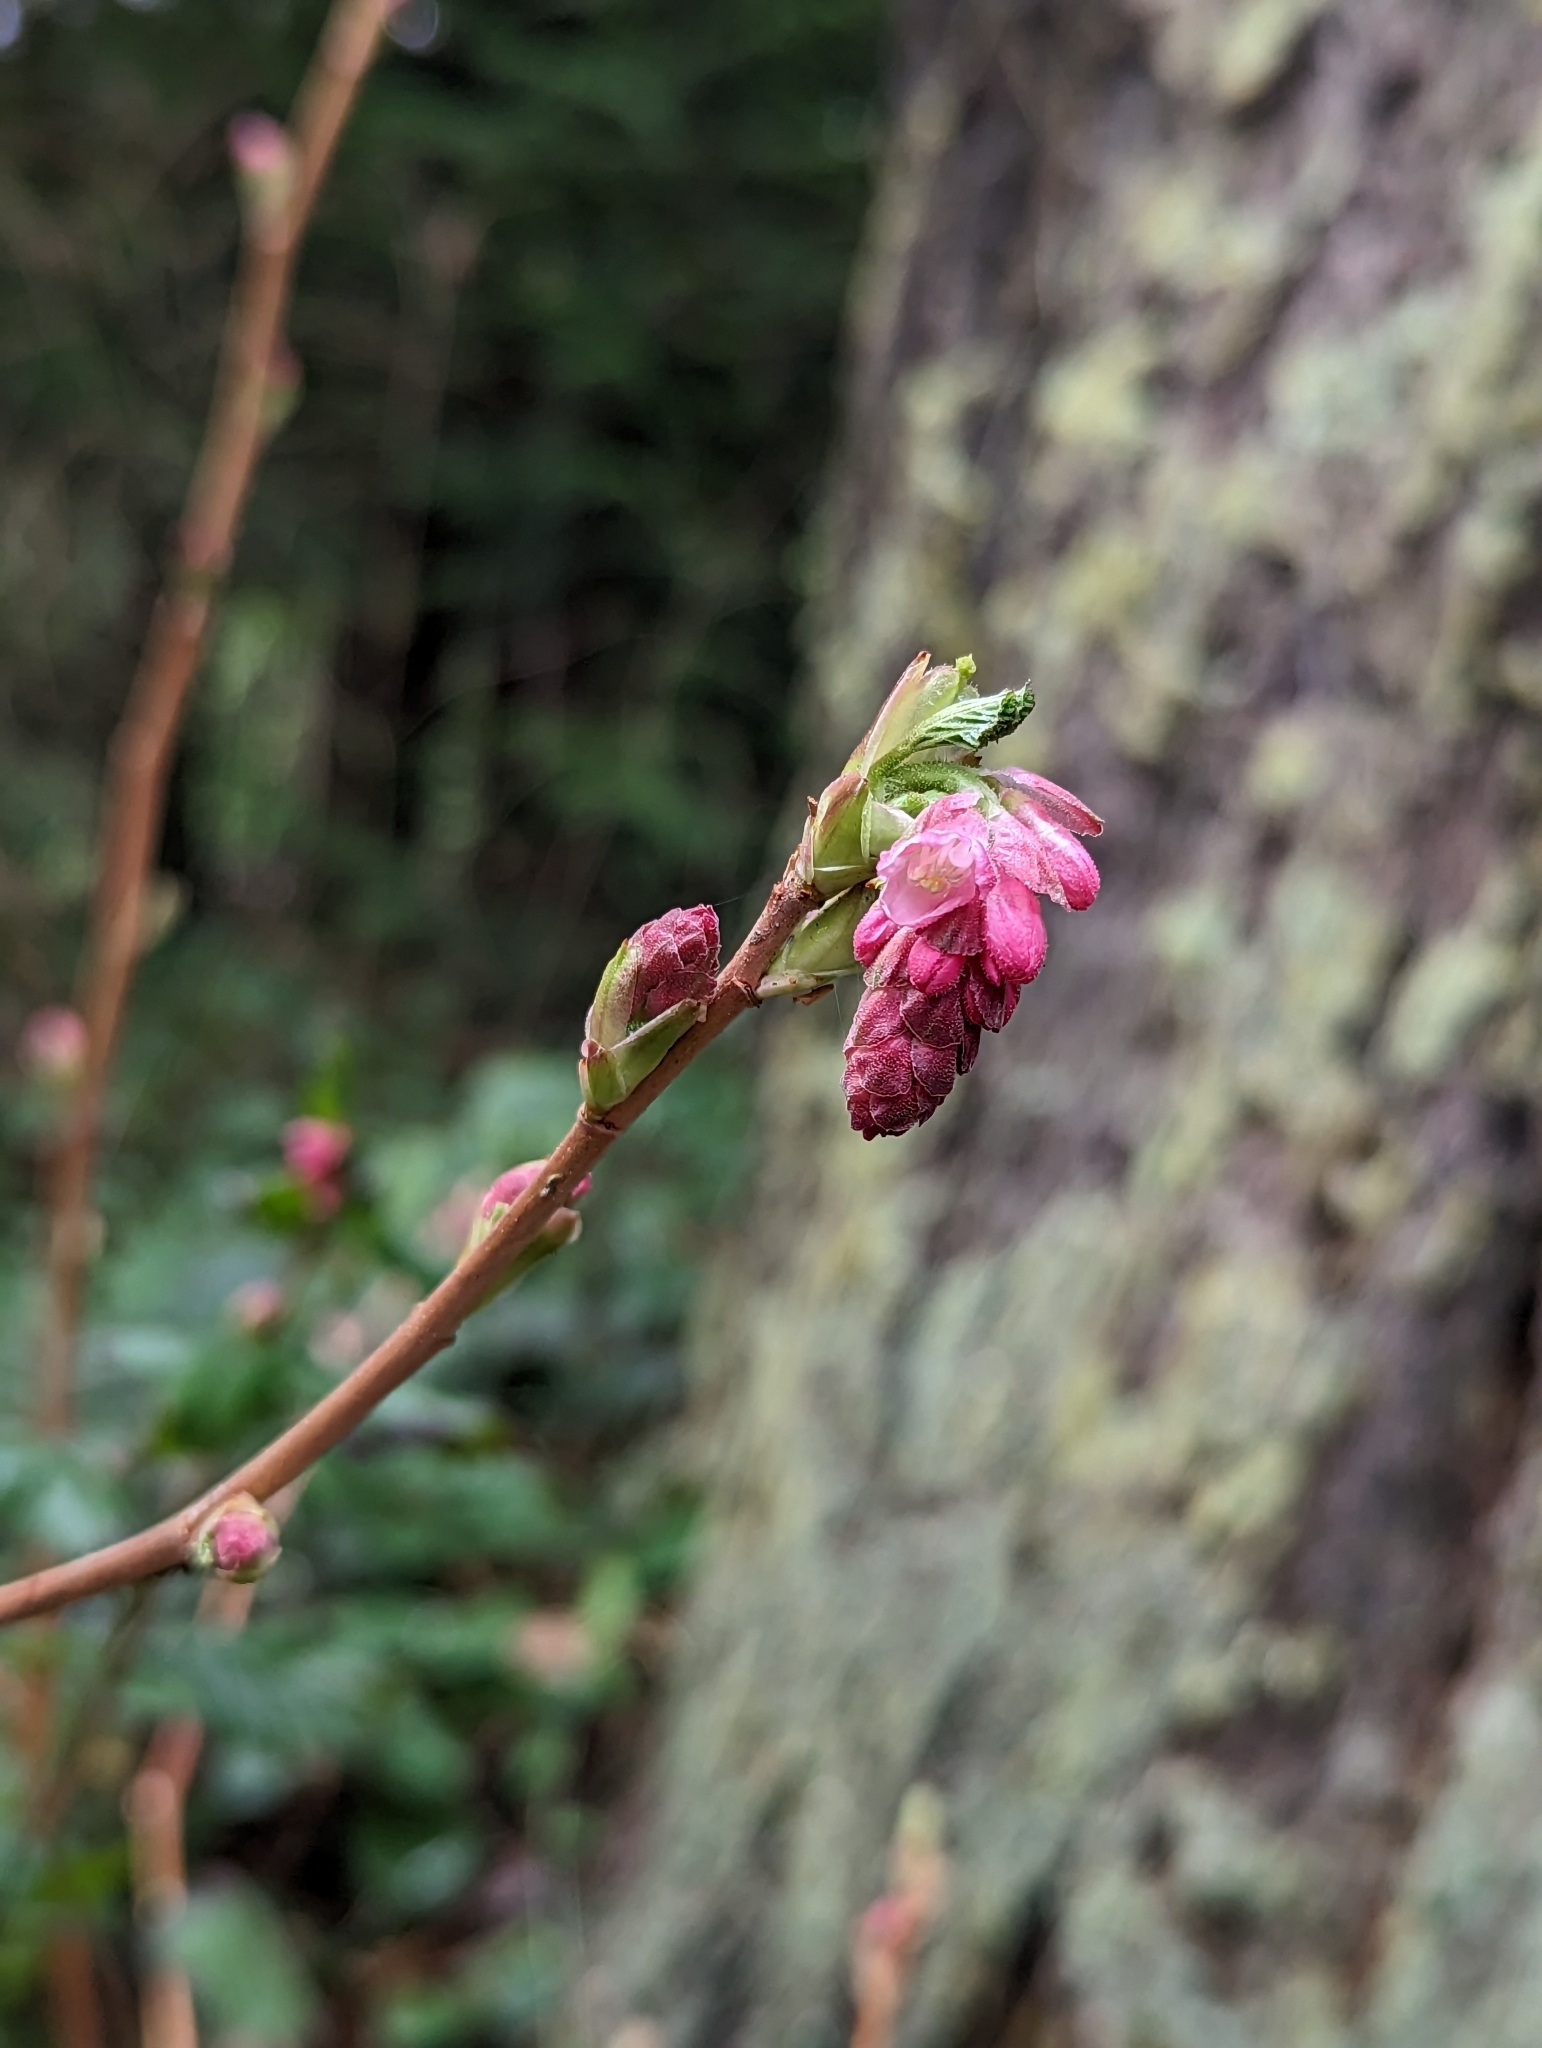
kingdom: Plantae
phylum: Tracheophyta
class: Magnoliopsida
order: Saxifragales
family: Grossulariaceae
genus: Ribes
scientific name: Ribes sanguineum
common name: Flowering currant
